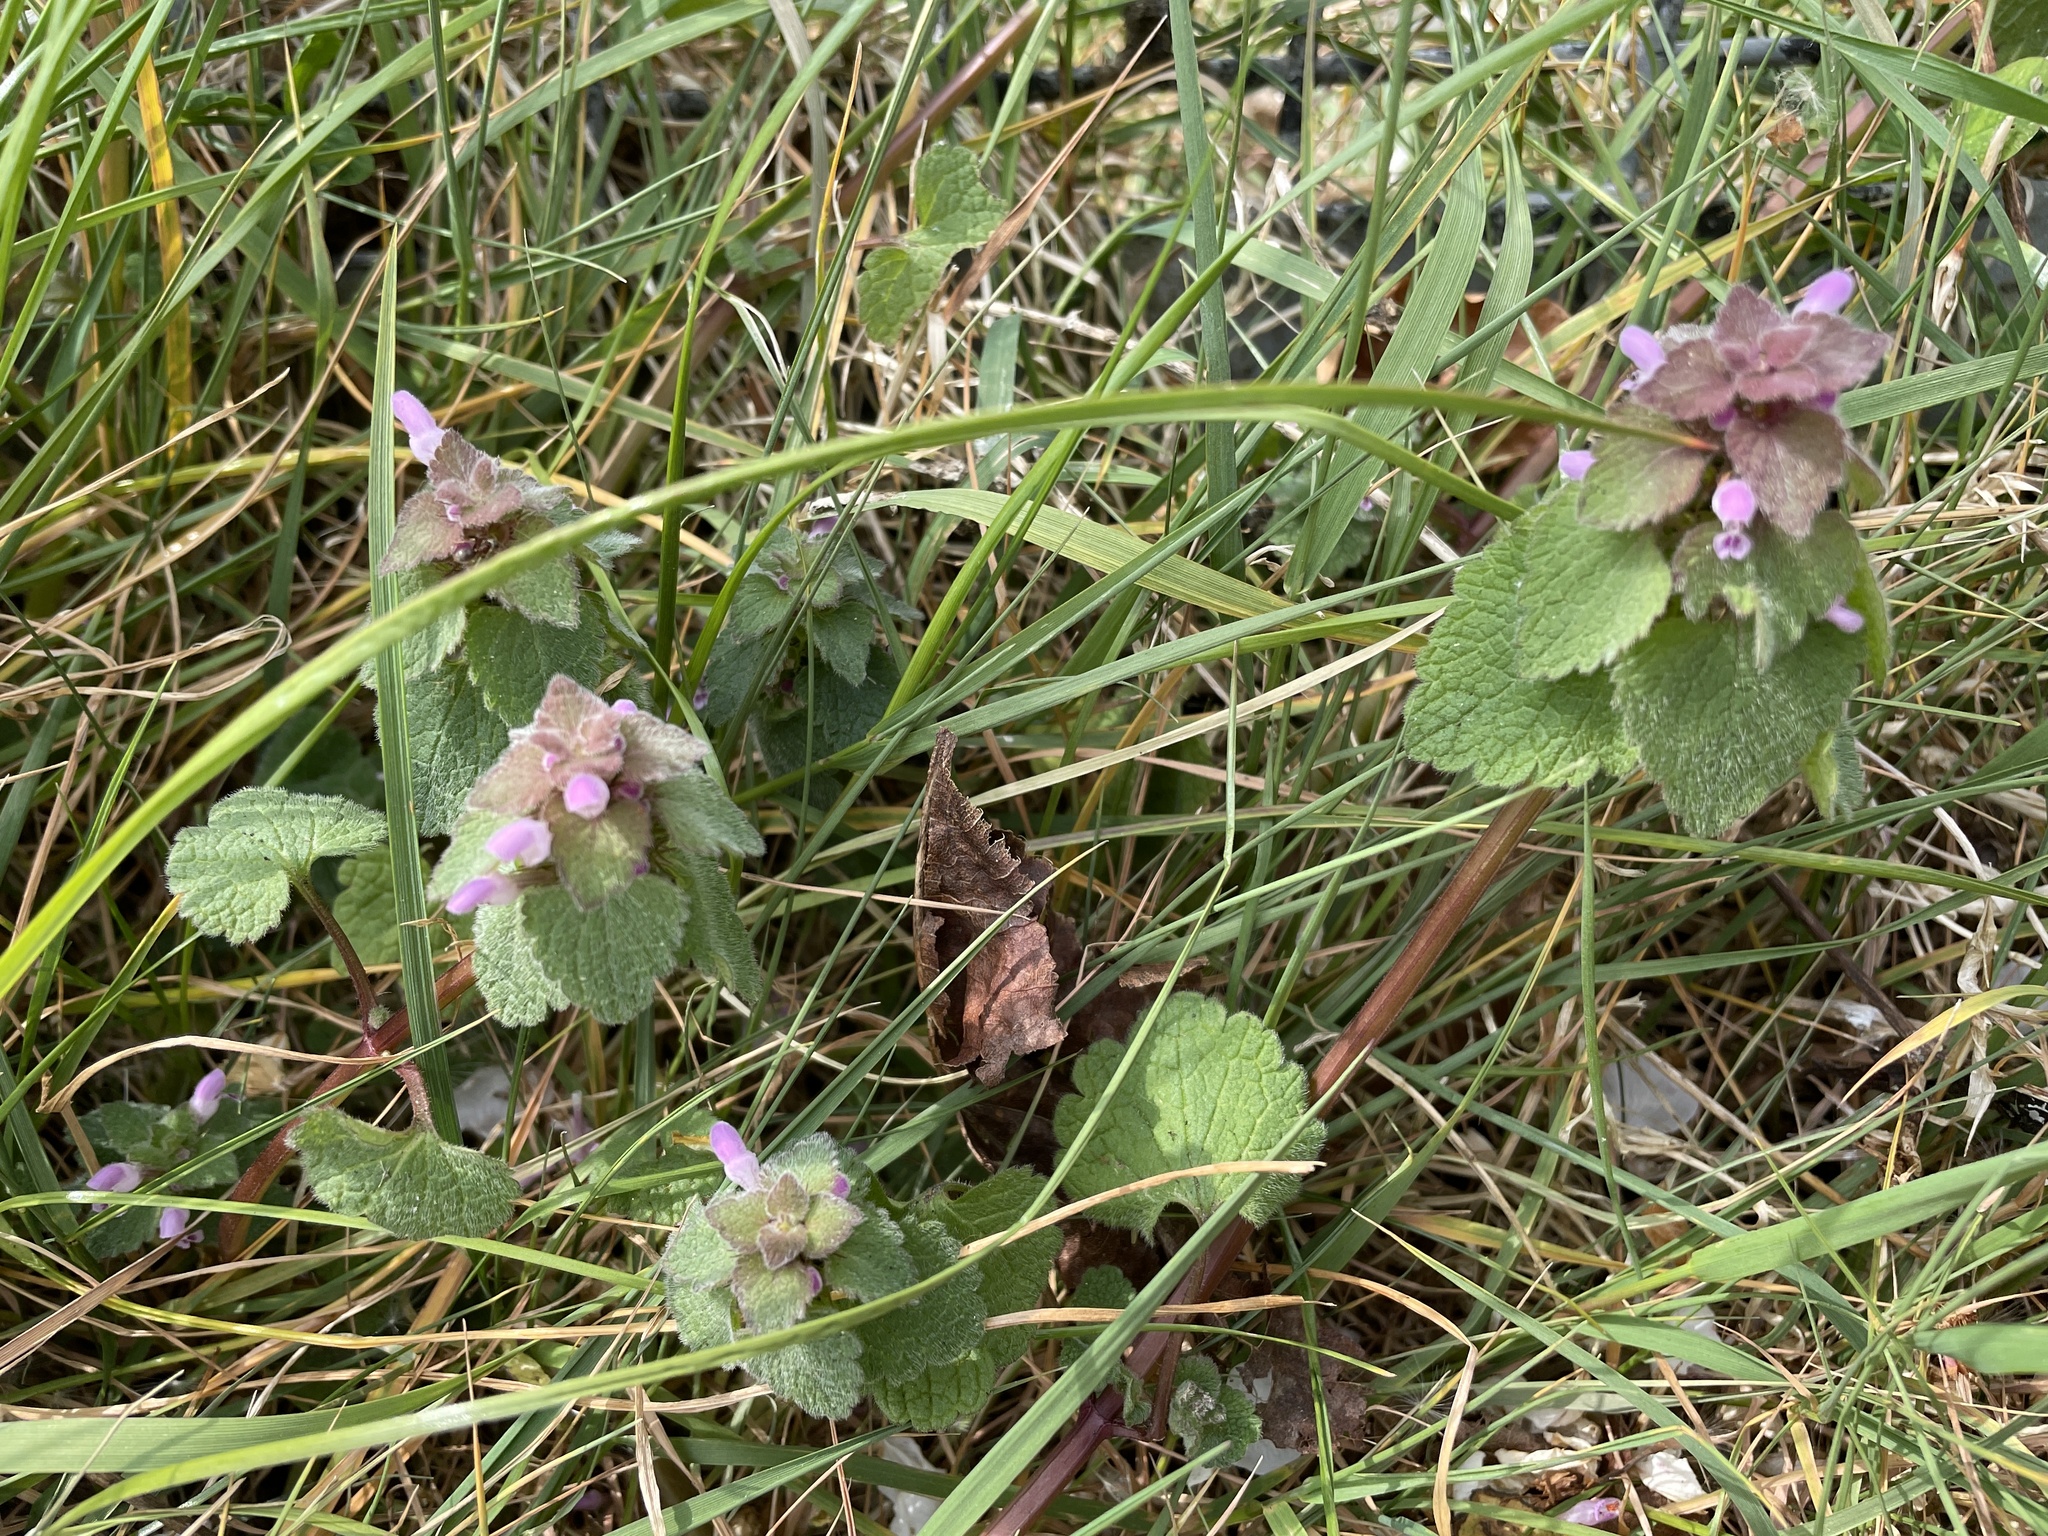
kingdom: Plantae
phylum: Tracheophyta
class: Magnoliopsida
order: Lamiales
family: Lamiaceae
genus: Lamium
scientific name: Lamium purpureum
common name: Red dead-nettle
